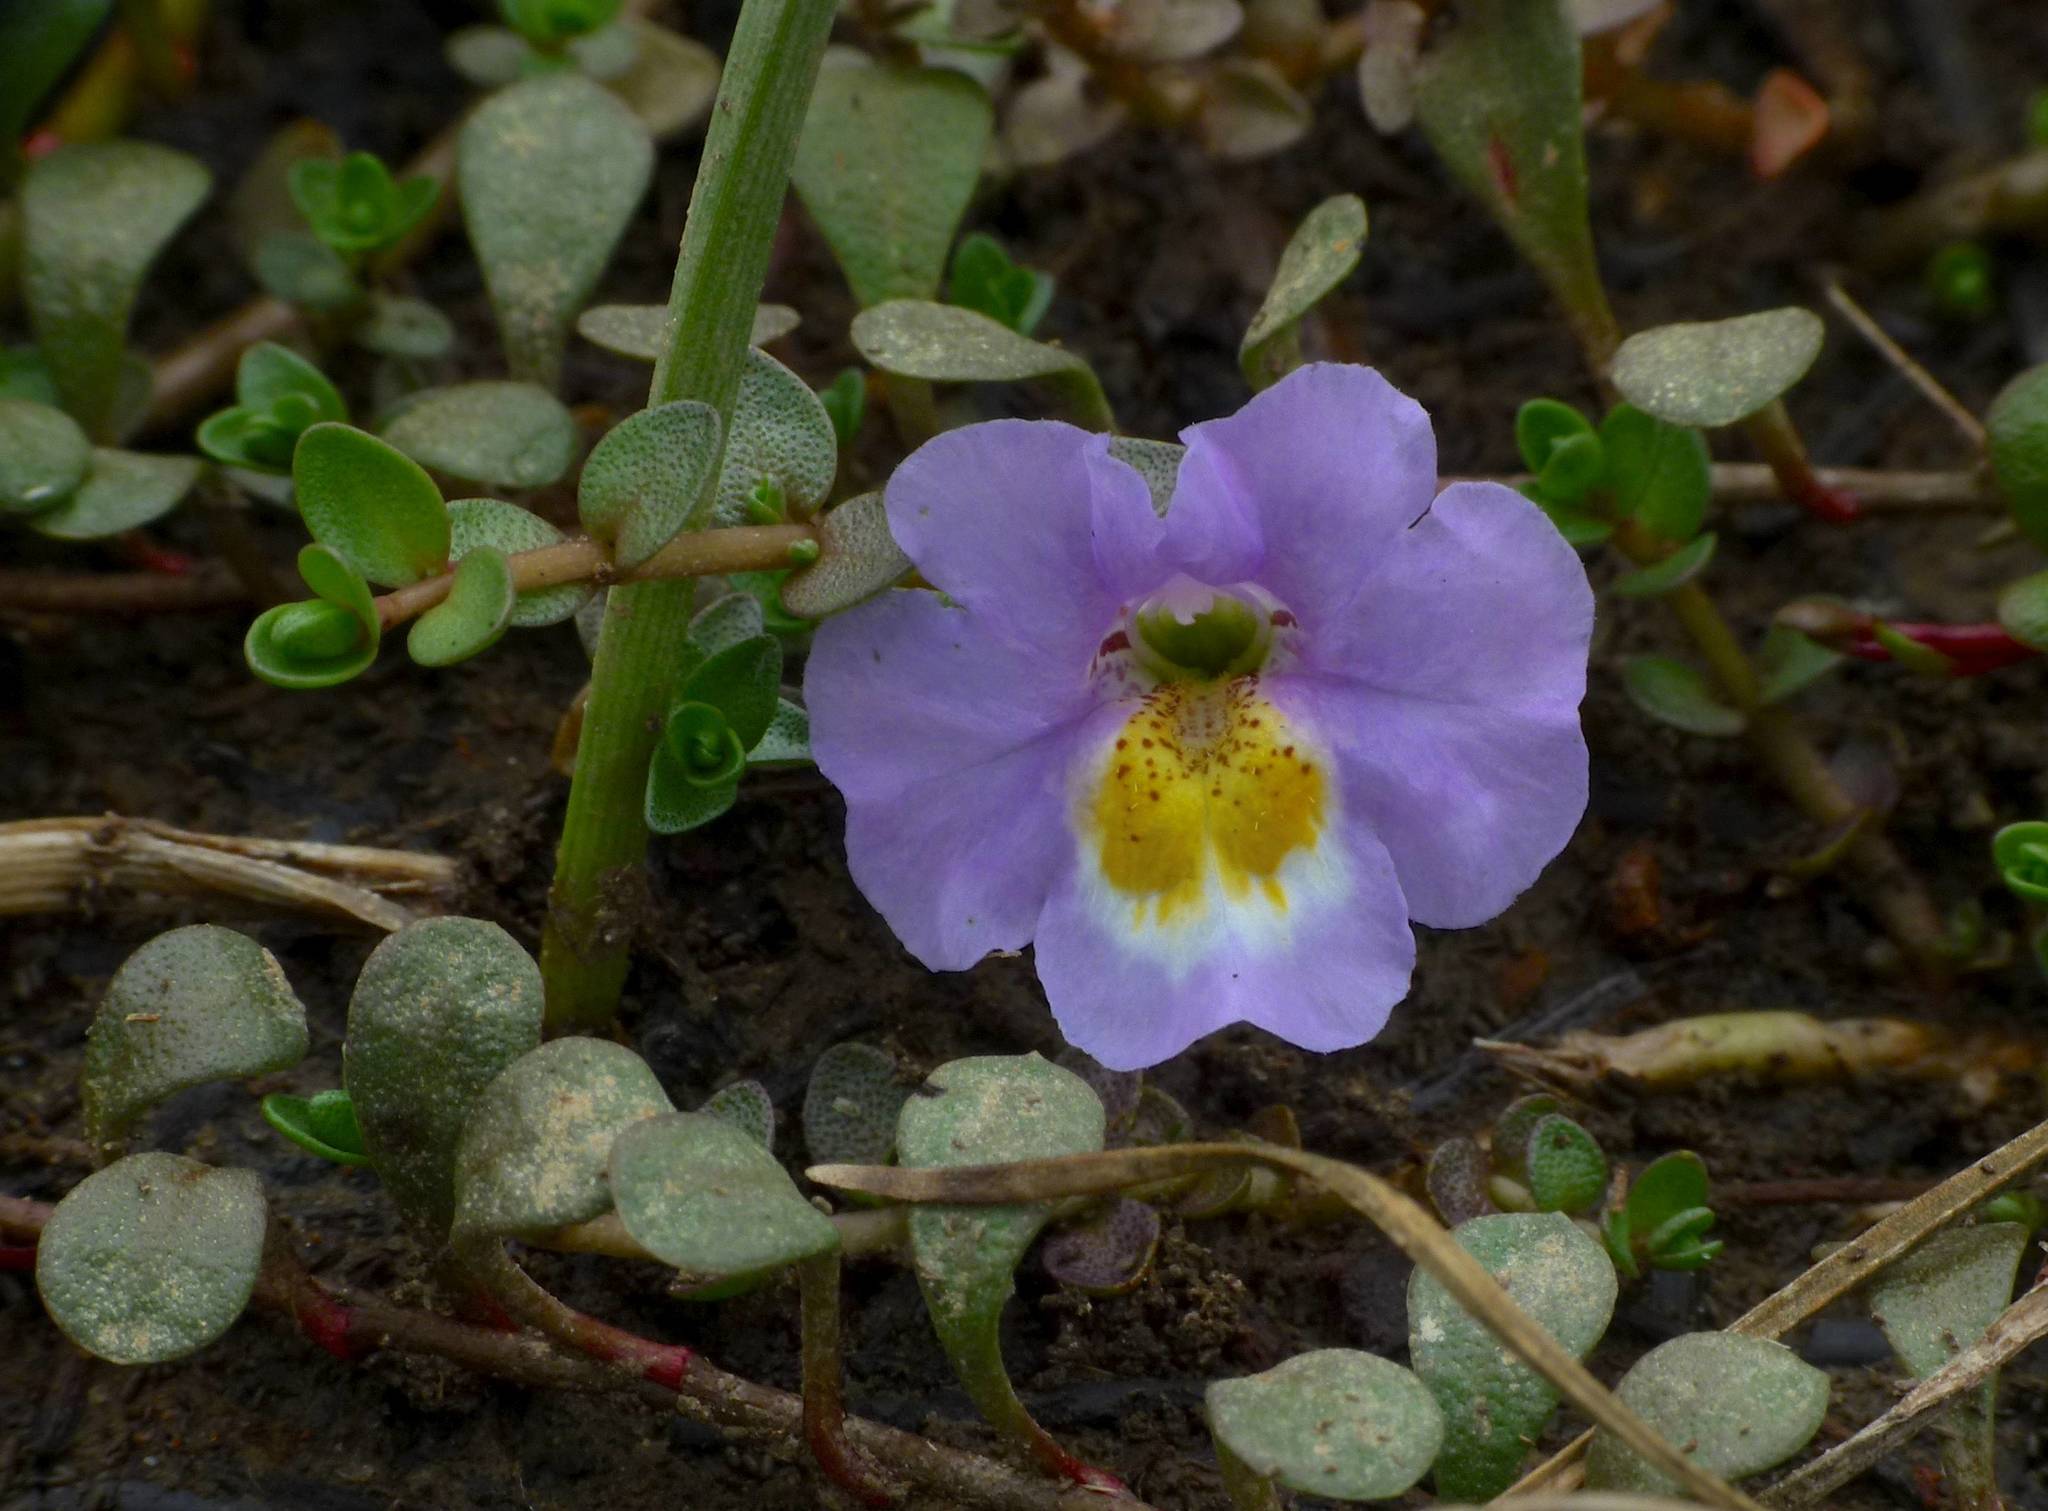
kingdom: Plantae
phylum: Tracheophyta
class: Magnoliopsida
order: Lamiales
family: Phrymaceae
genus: Thyridia
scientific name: Thyridia repens
